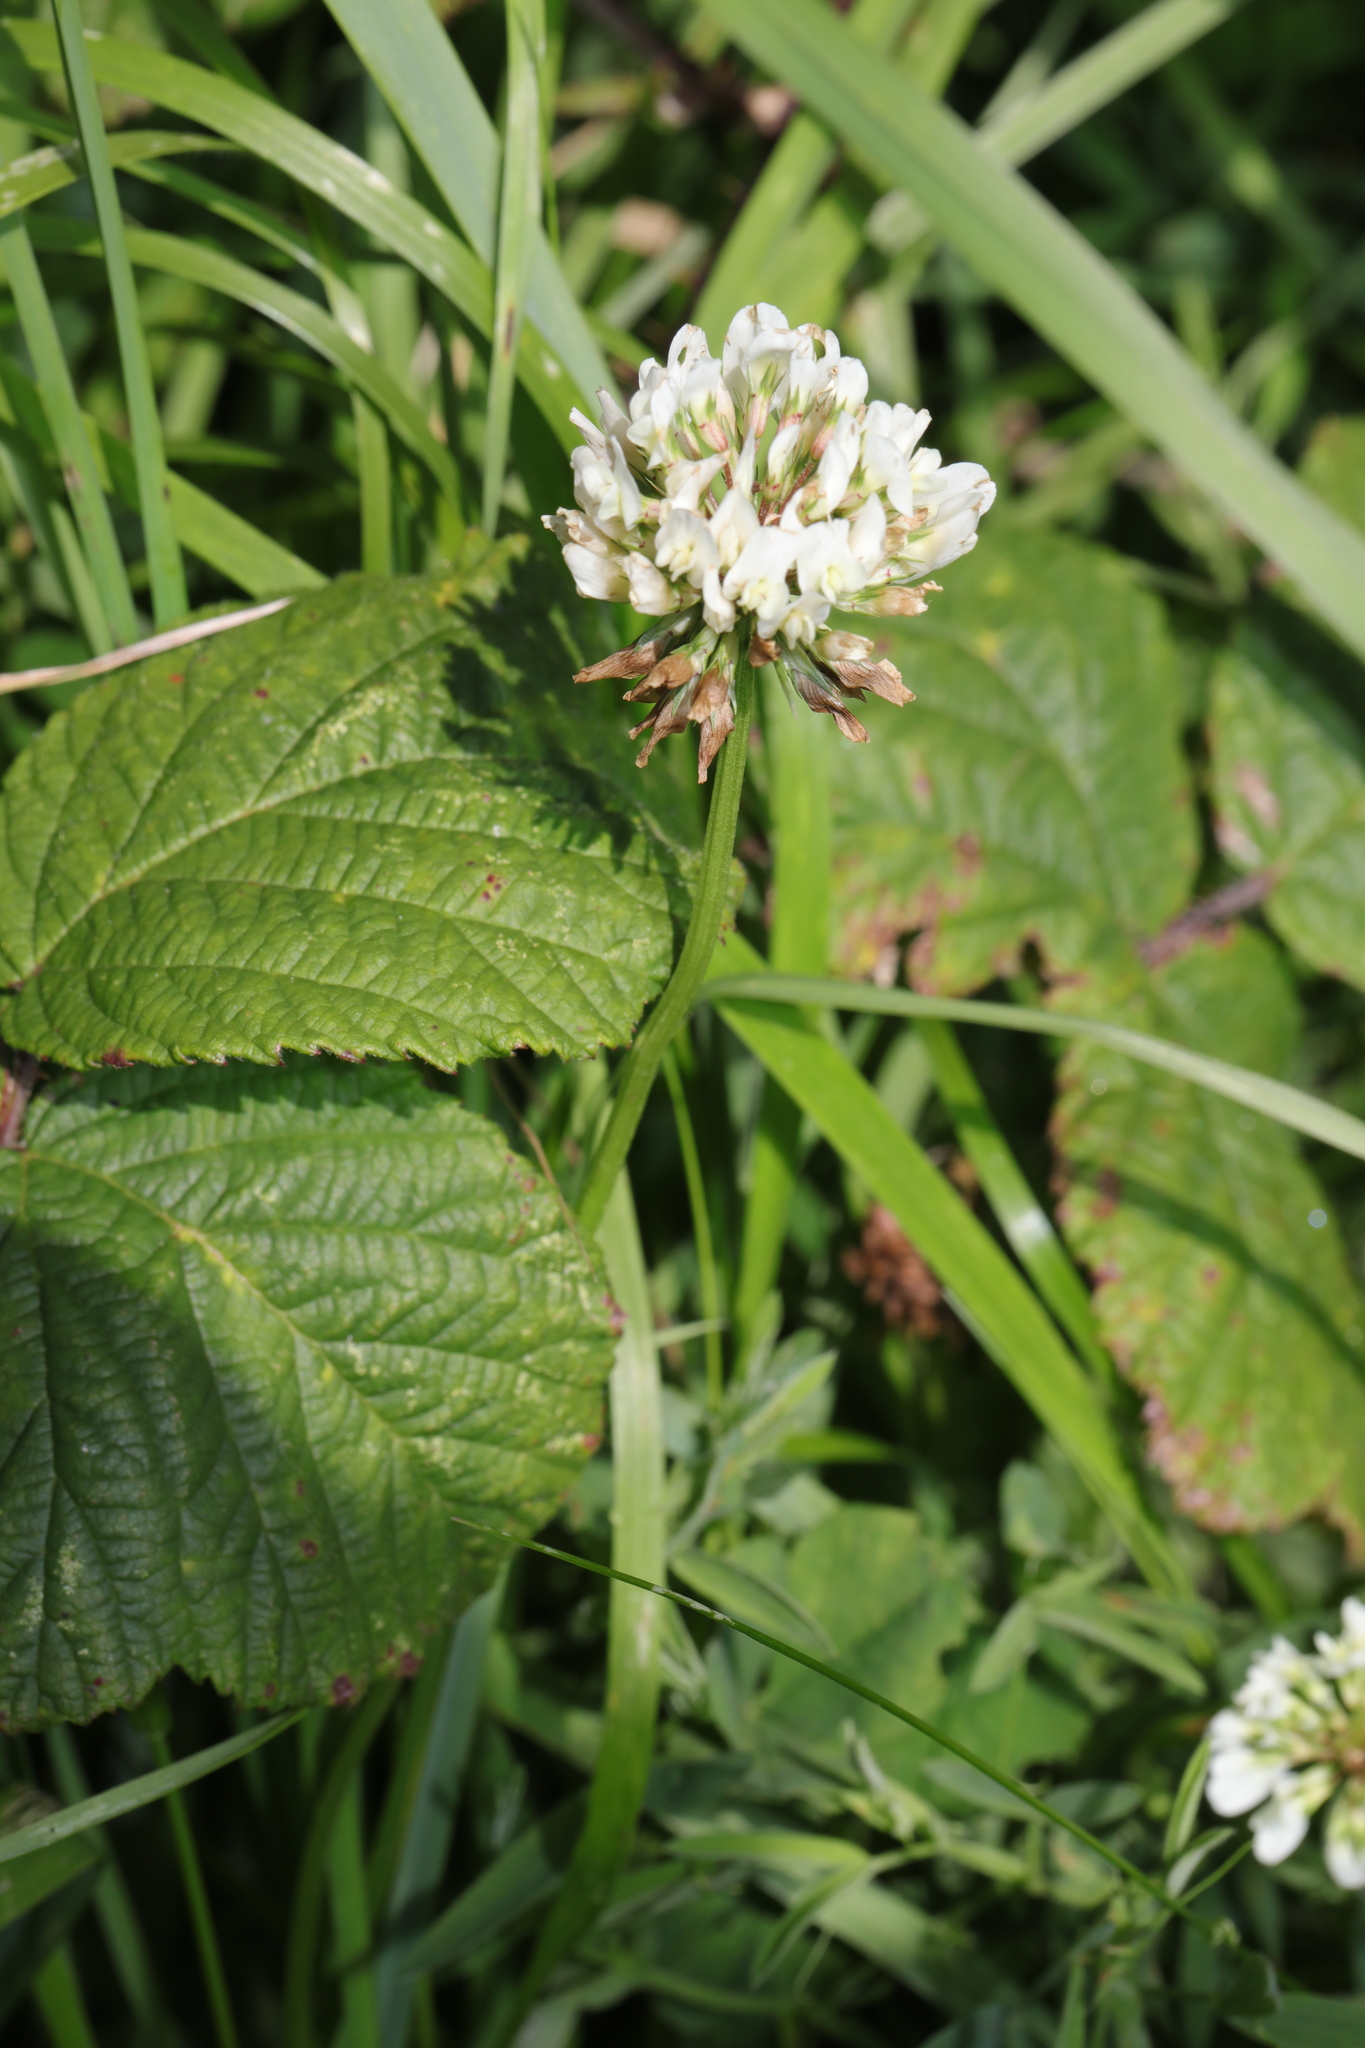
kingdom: Plantae
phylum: Tracheophyta
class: Magnoliopsida
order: Fabales
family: Fabaceae
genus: Trifolium
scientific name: Trifolium repens
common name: White clover
